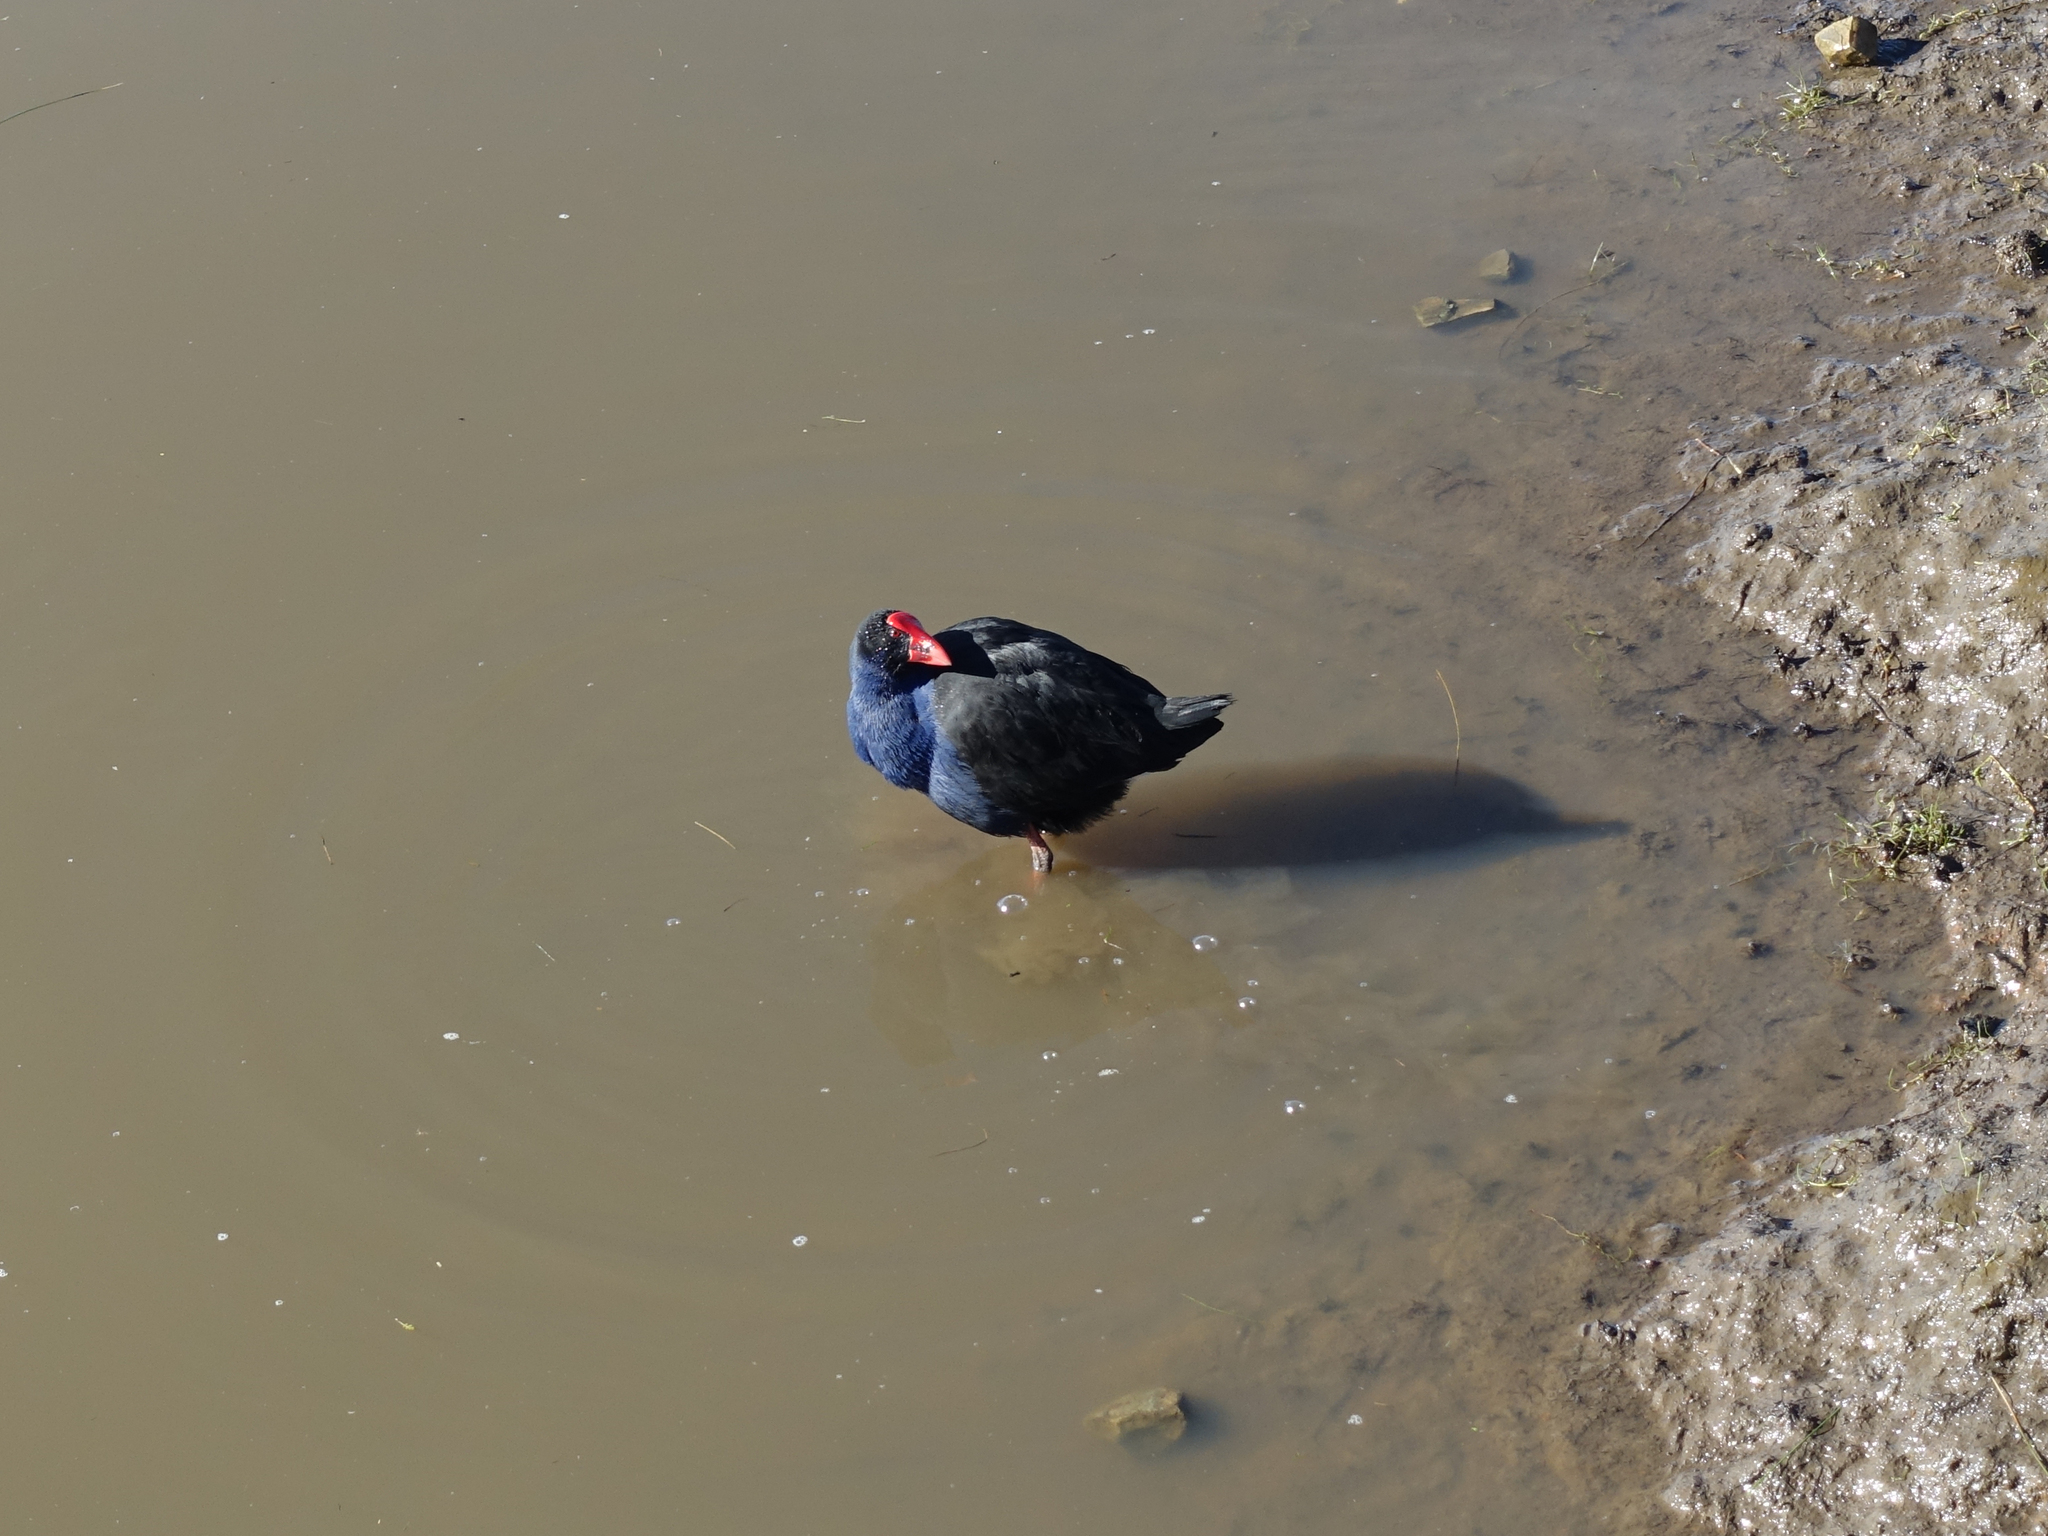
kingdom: Animalia
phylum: Chordata
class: Aves
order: Gruiformes
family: Rallidae
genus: Porphyrio
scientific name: Porphyrio melanotus
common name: Australasian swamphen
